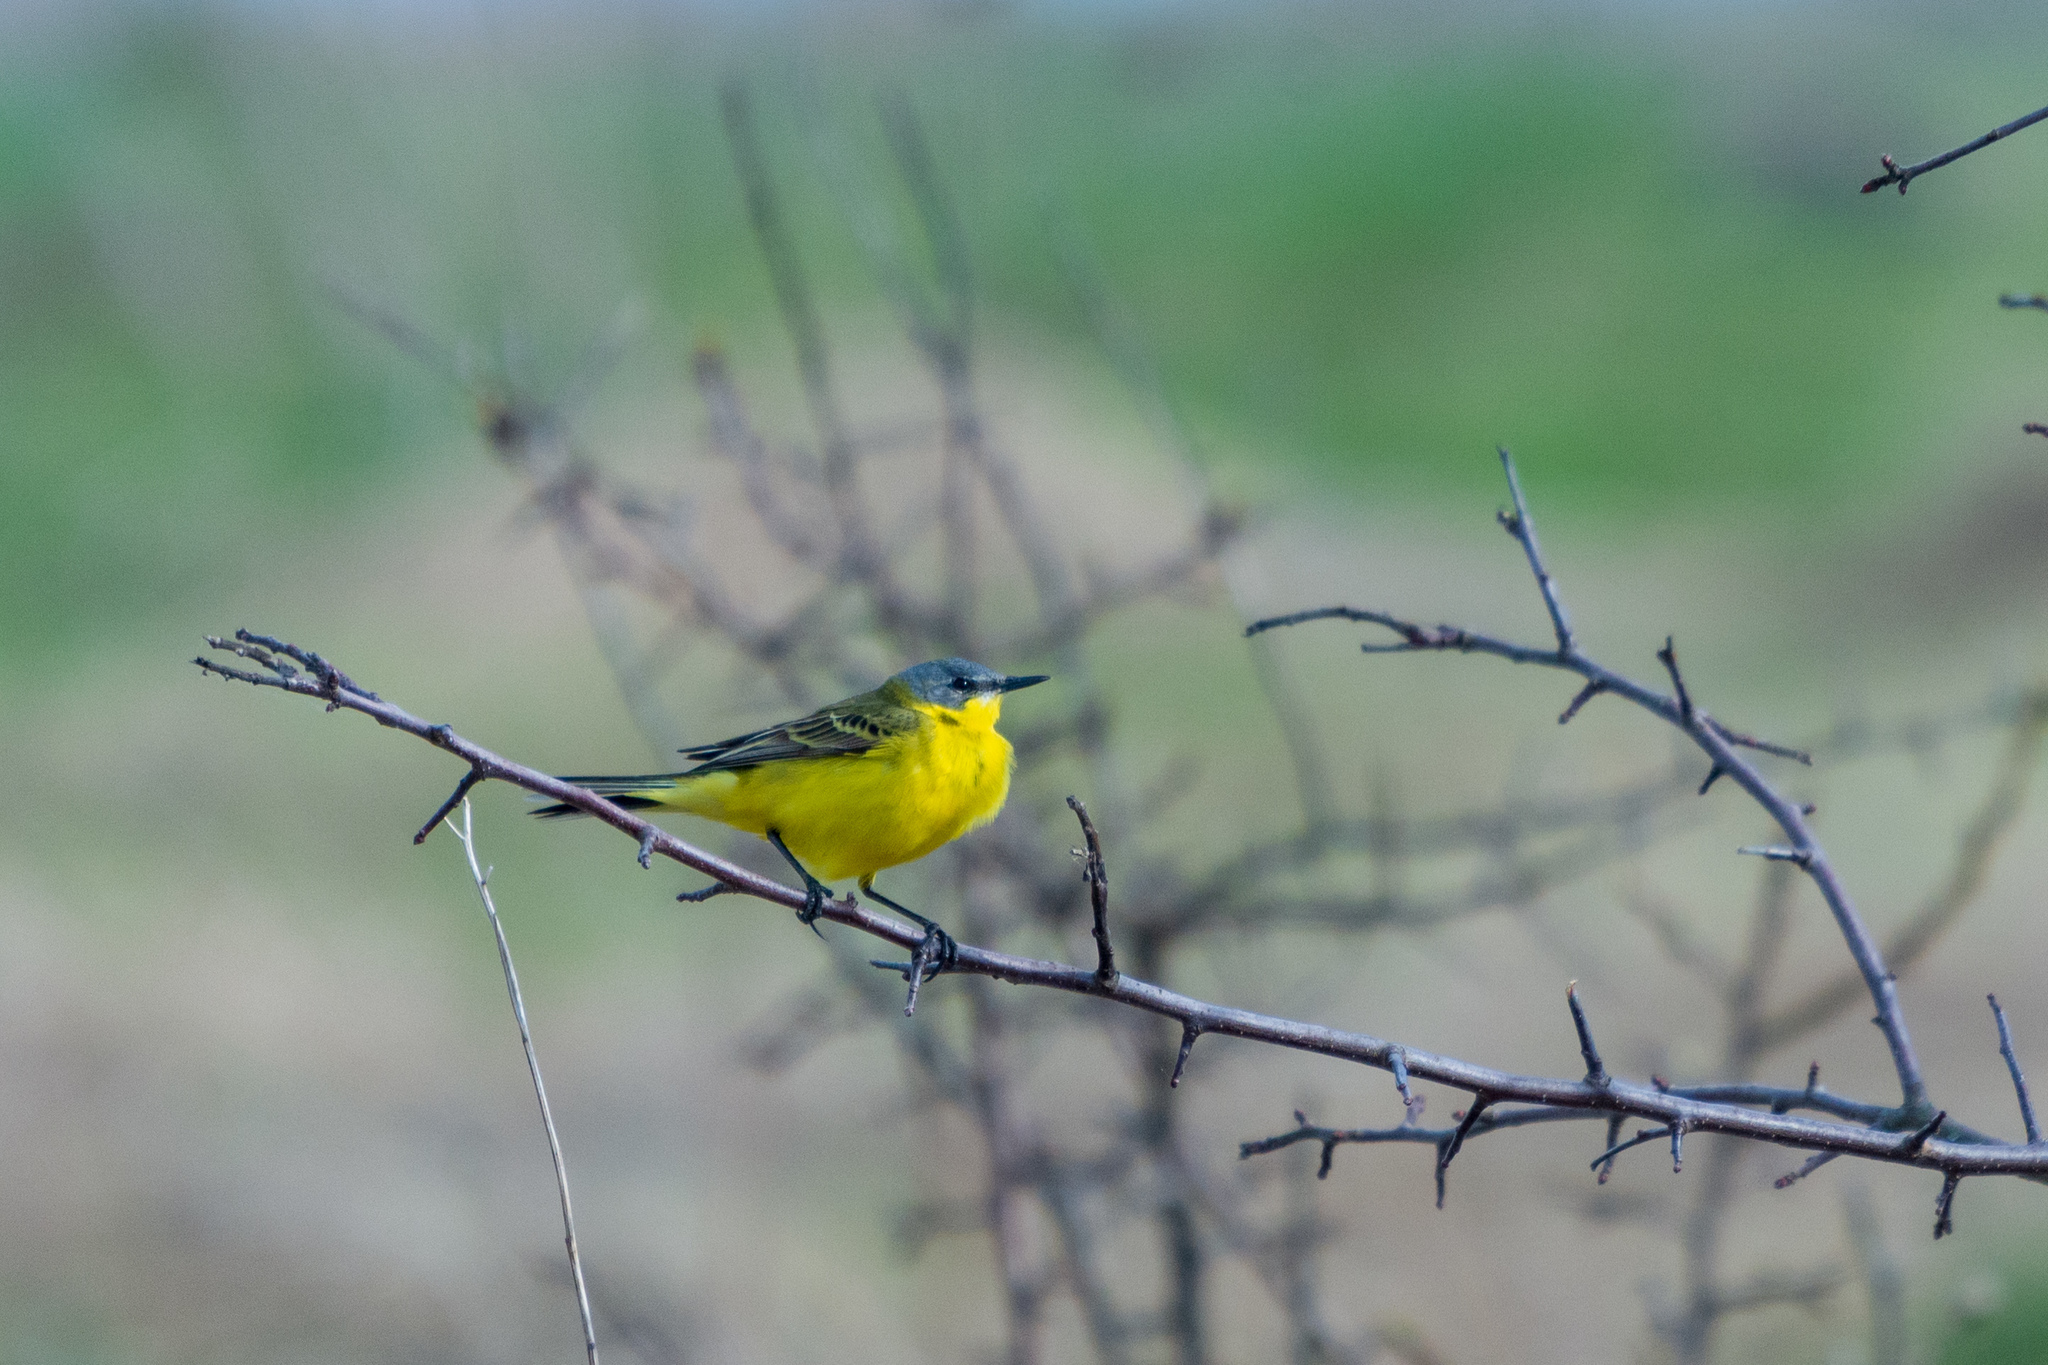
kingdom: Animalia
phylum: Chordata
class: Aves
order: Passeriformes
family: Motacillidae
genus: Motacilla
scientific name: Motacilla flava
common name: Western yellow wagtail
